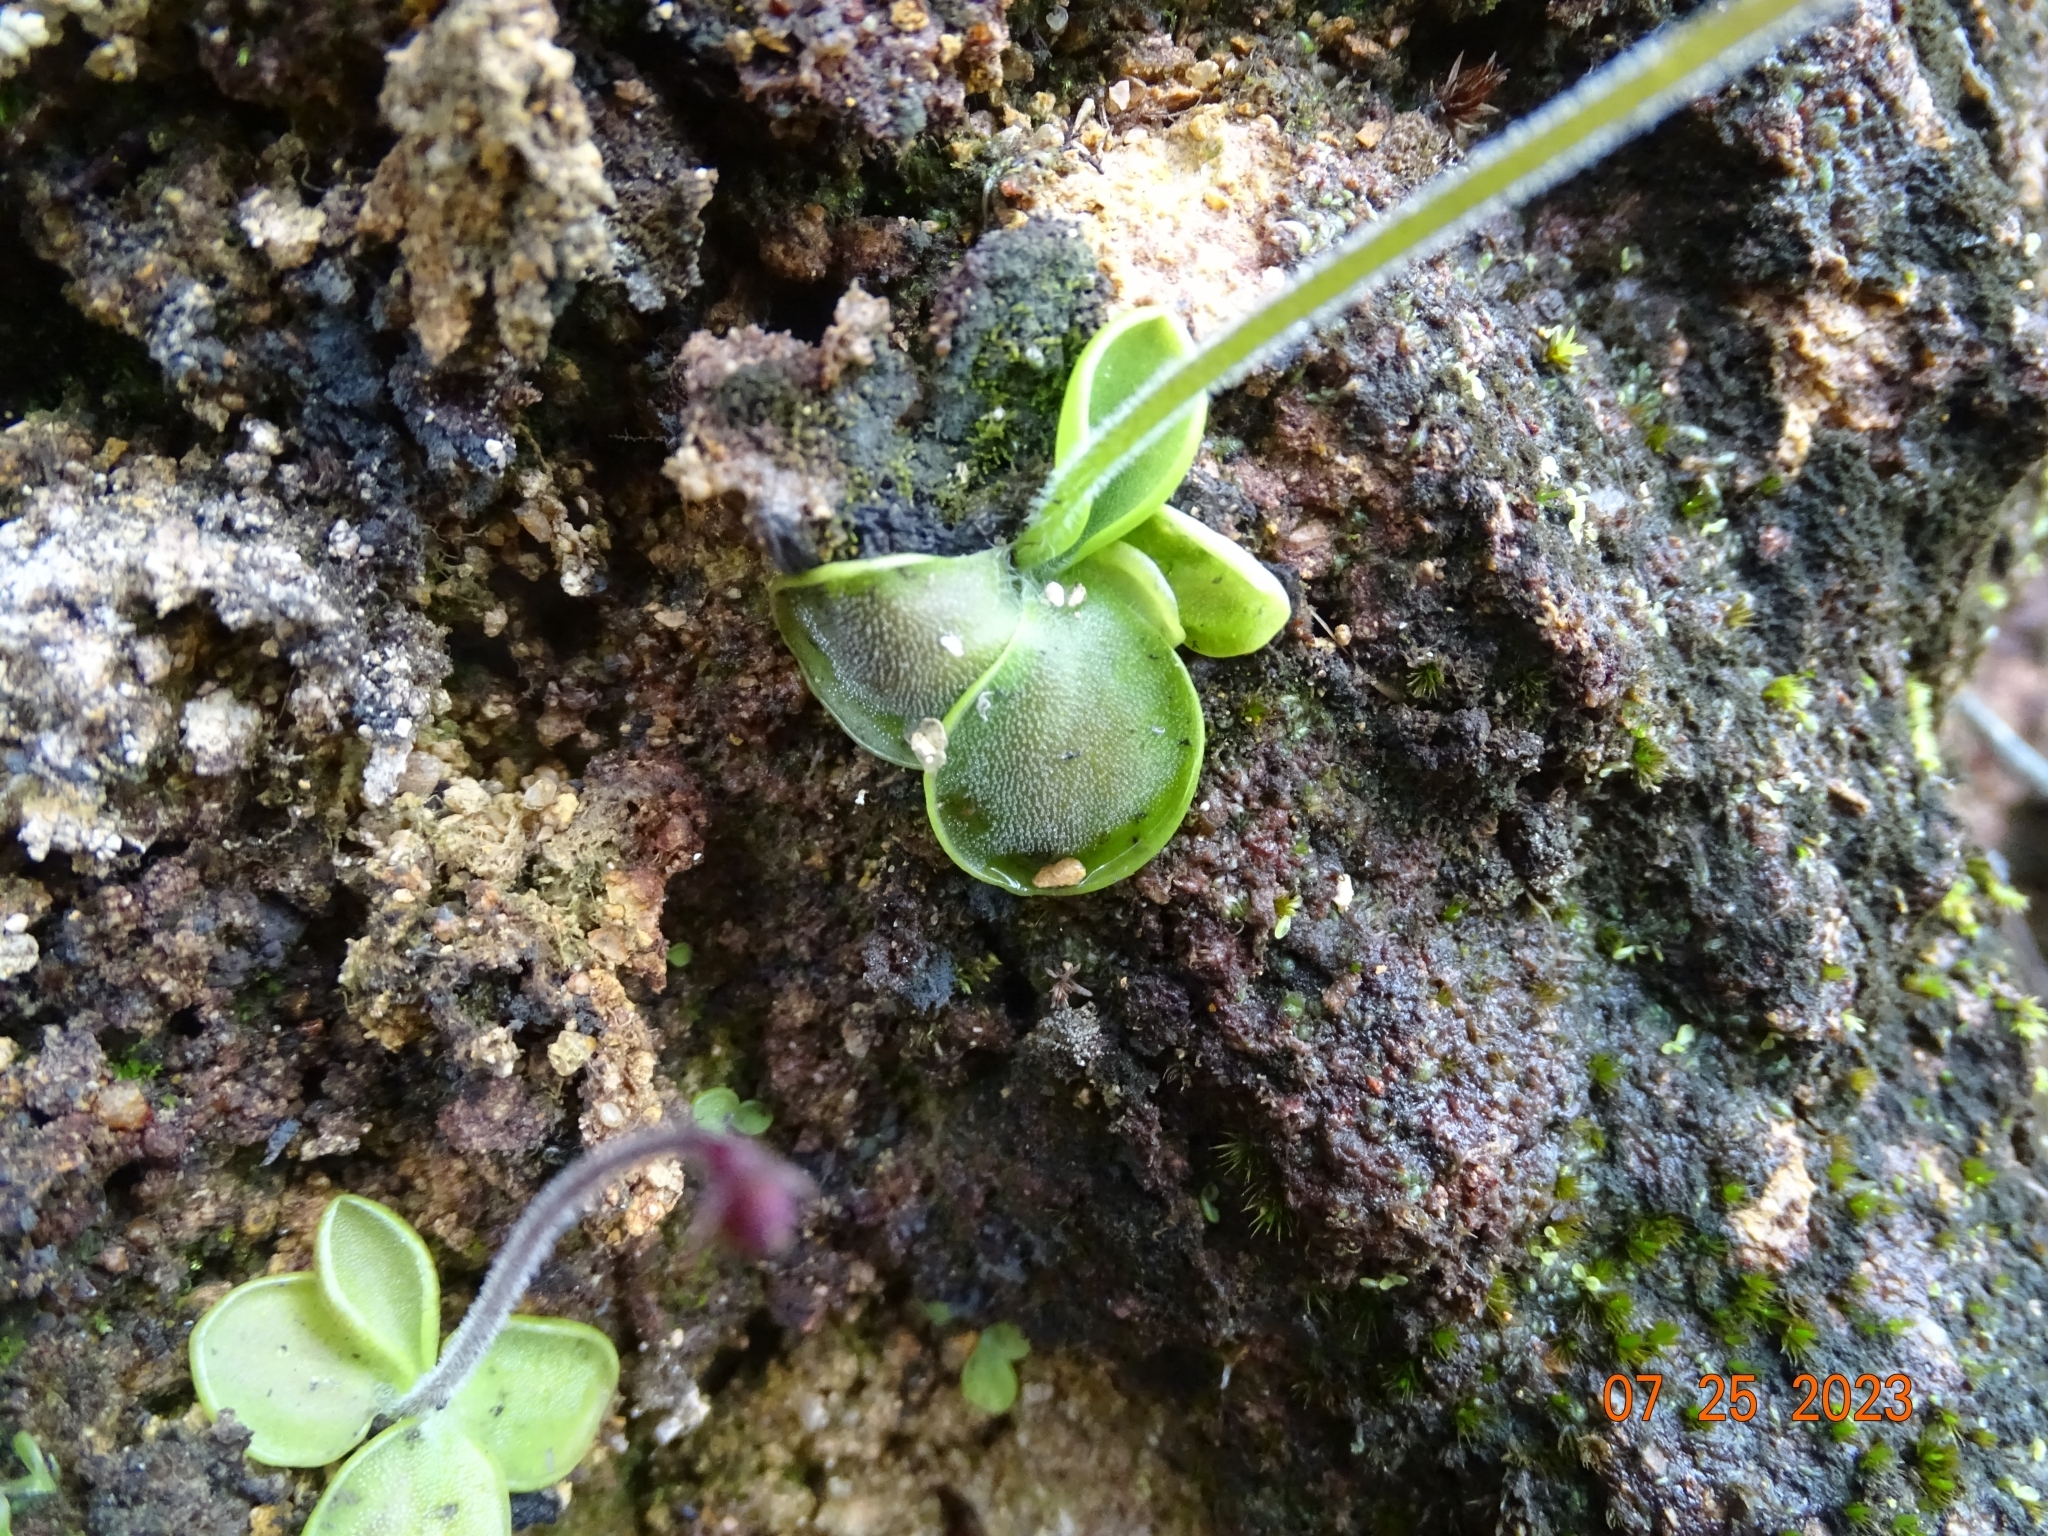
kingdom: Plantae
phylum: Tracheophyta
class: Magnoliopsida
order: Lamiales
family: Lentibulariaceae
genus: Pinguicula
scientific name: Pinguicula oblongiloba
